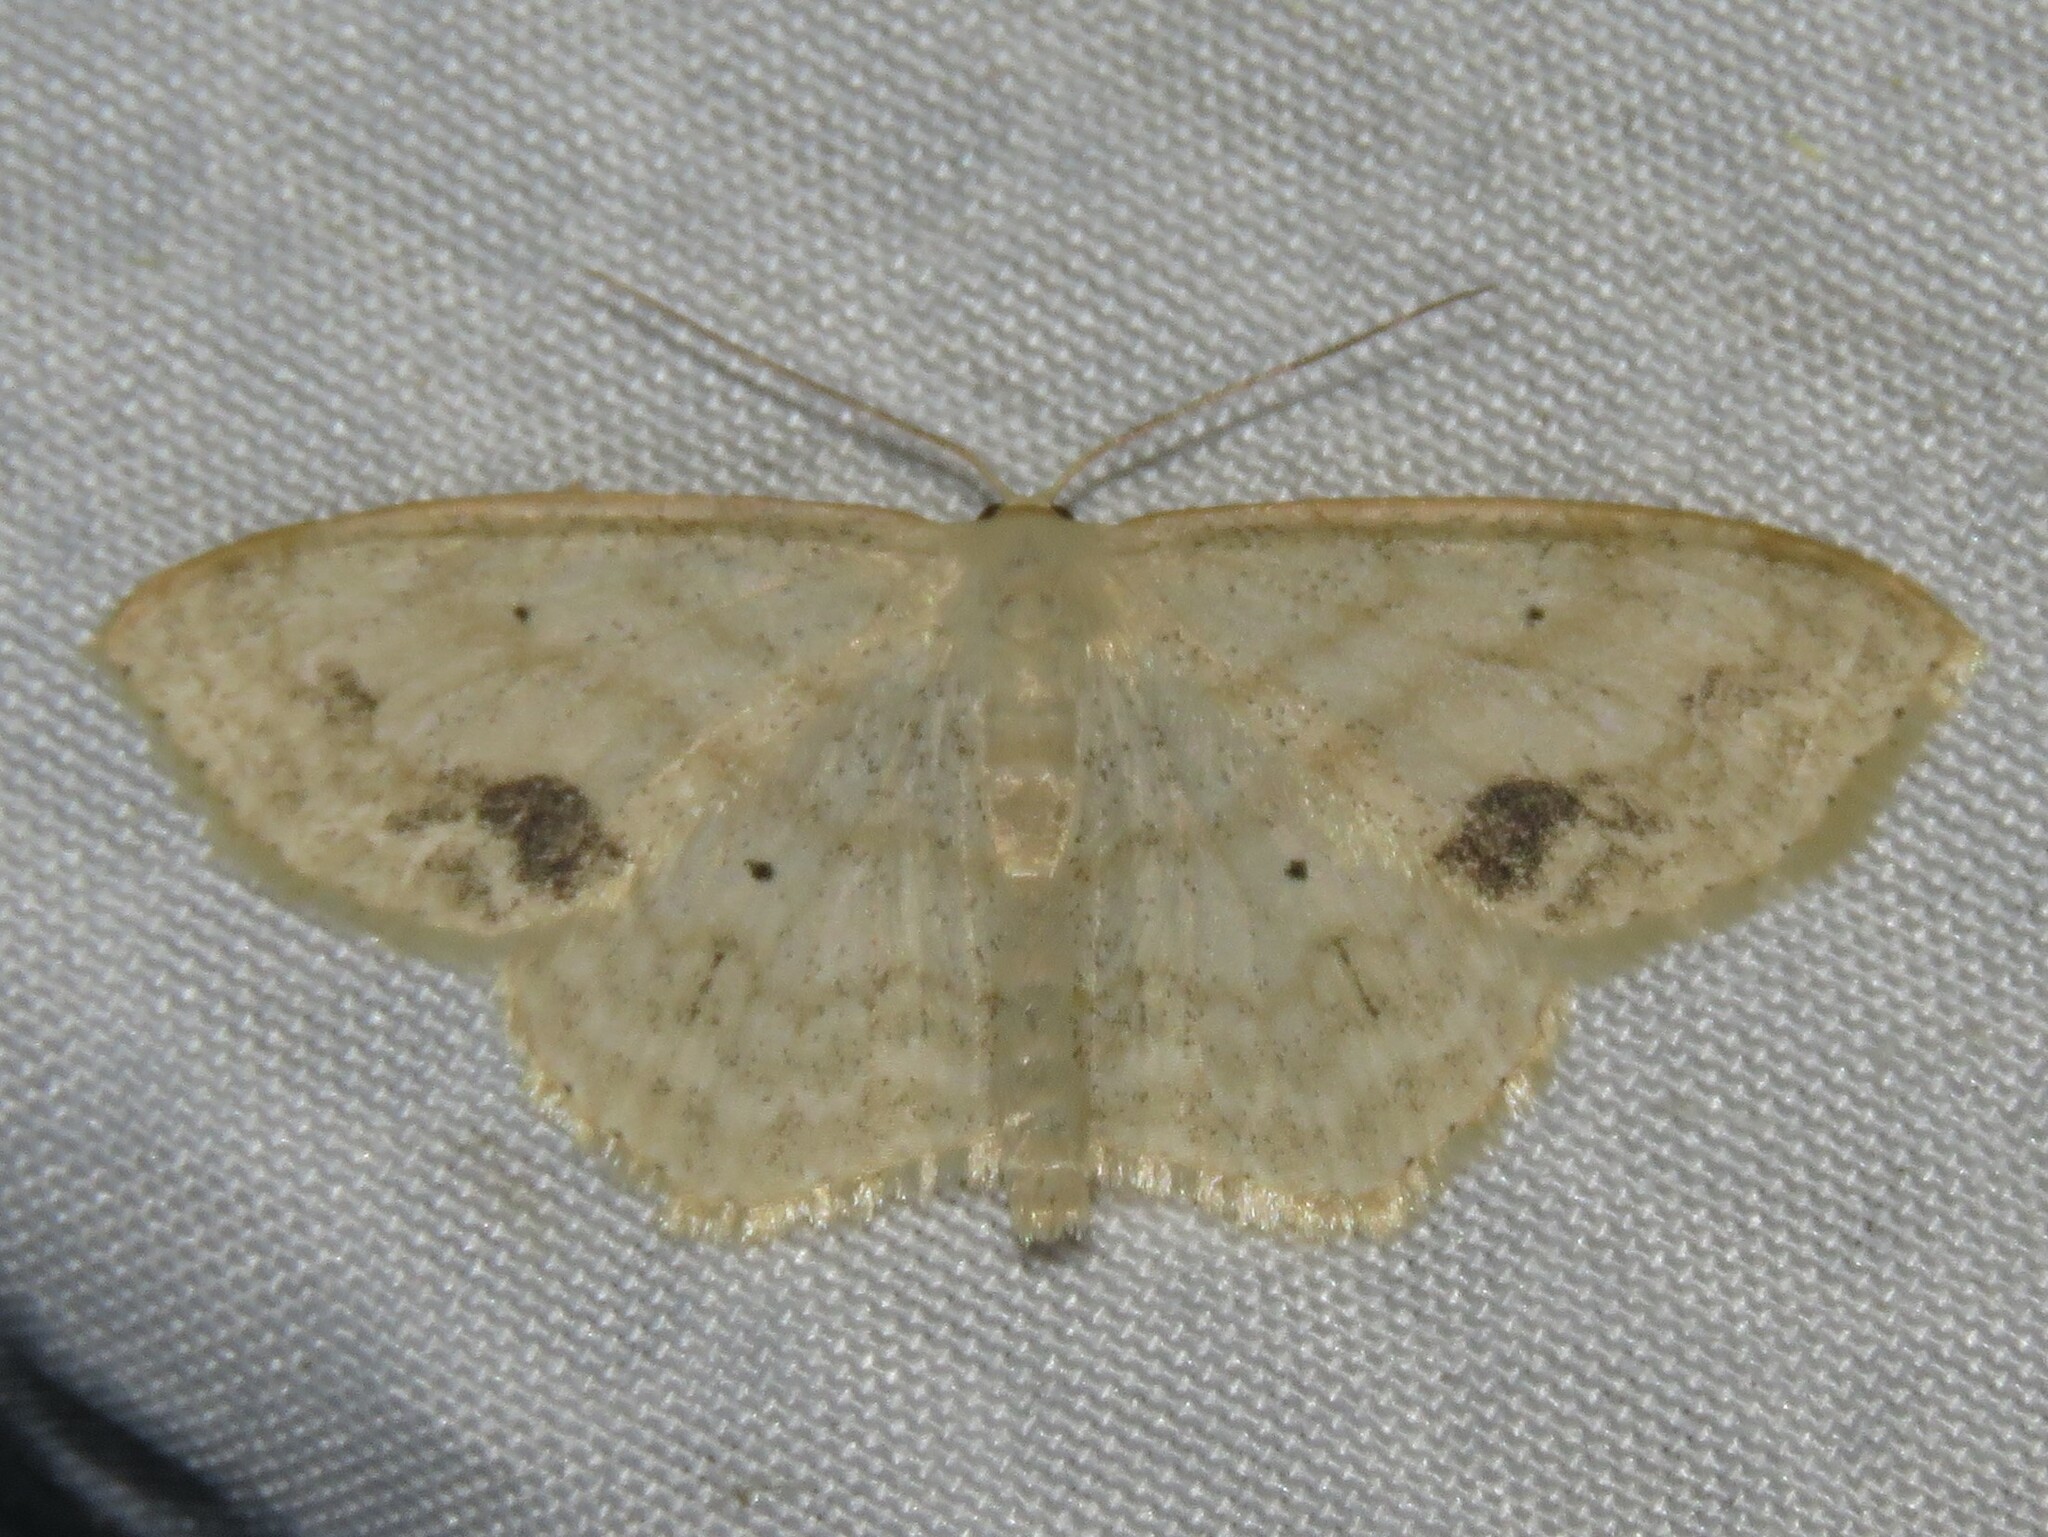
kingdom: Animalia
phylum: Arthropoda
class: Insecta
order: Lepidoptera
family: Geometridae
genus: Scopula
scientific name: Scopula limboundata
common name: Large lace border
